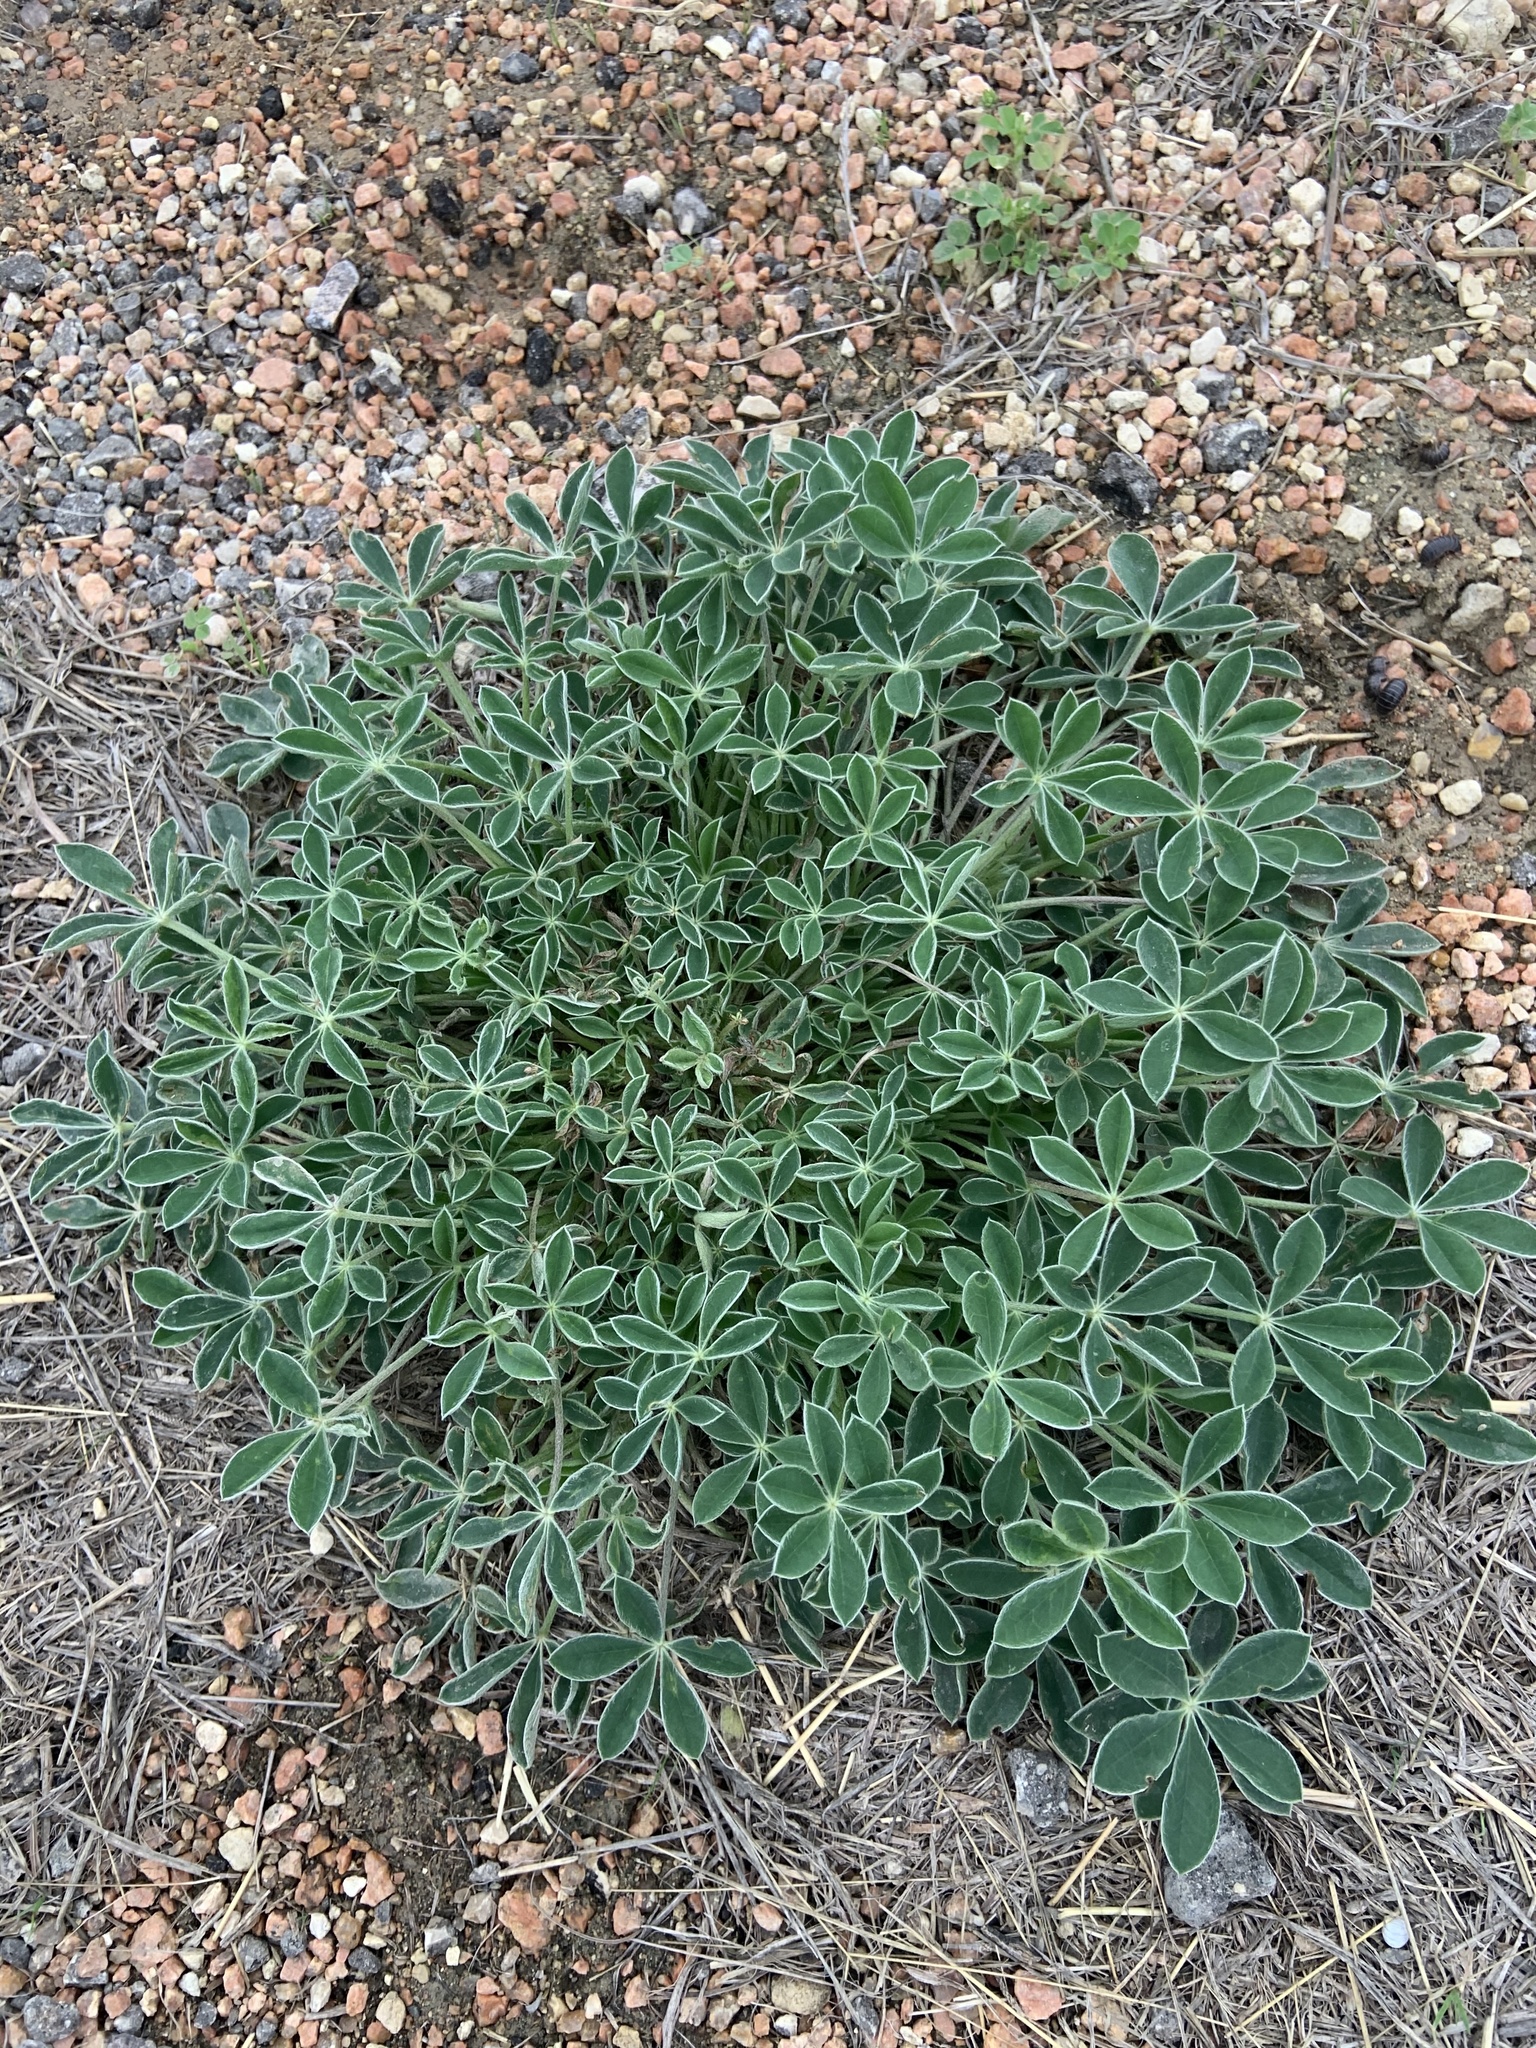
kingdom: Plantae
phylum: Tracheophyta
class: Magnoliopsida
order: Fabales
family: Fabaceae
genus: Lupinus
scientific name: Lupinus texensis
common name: Texas bluebonnet
